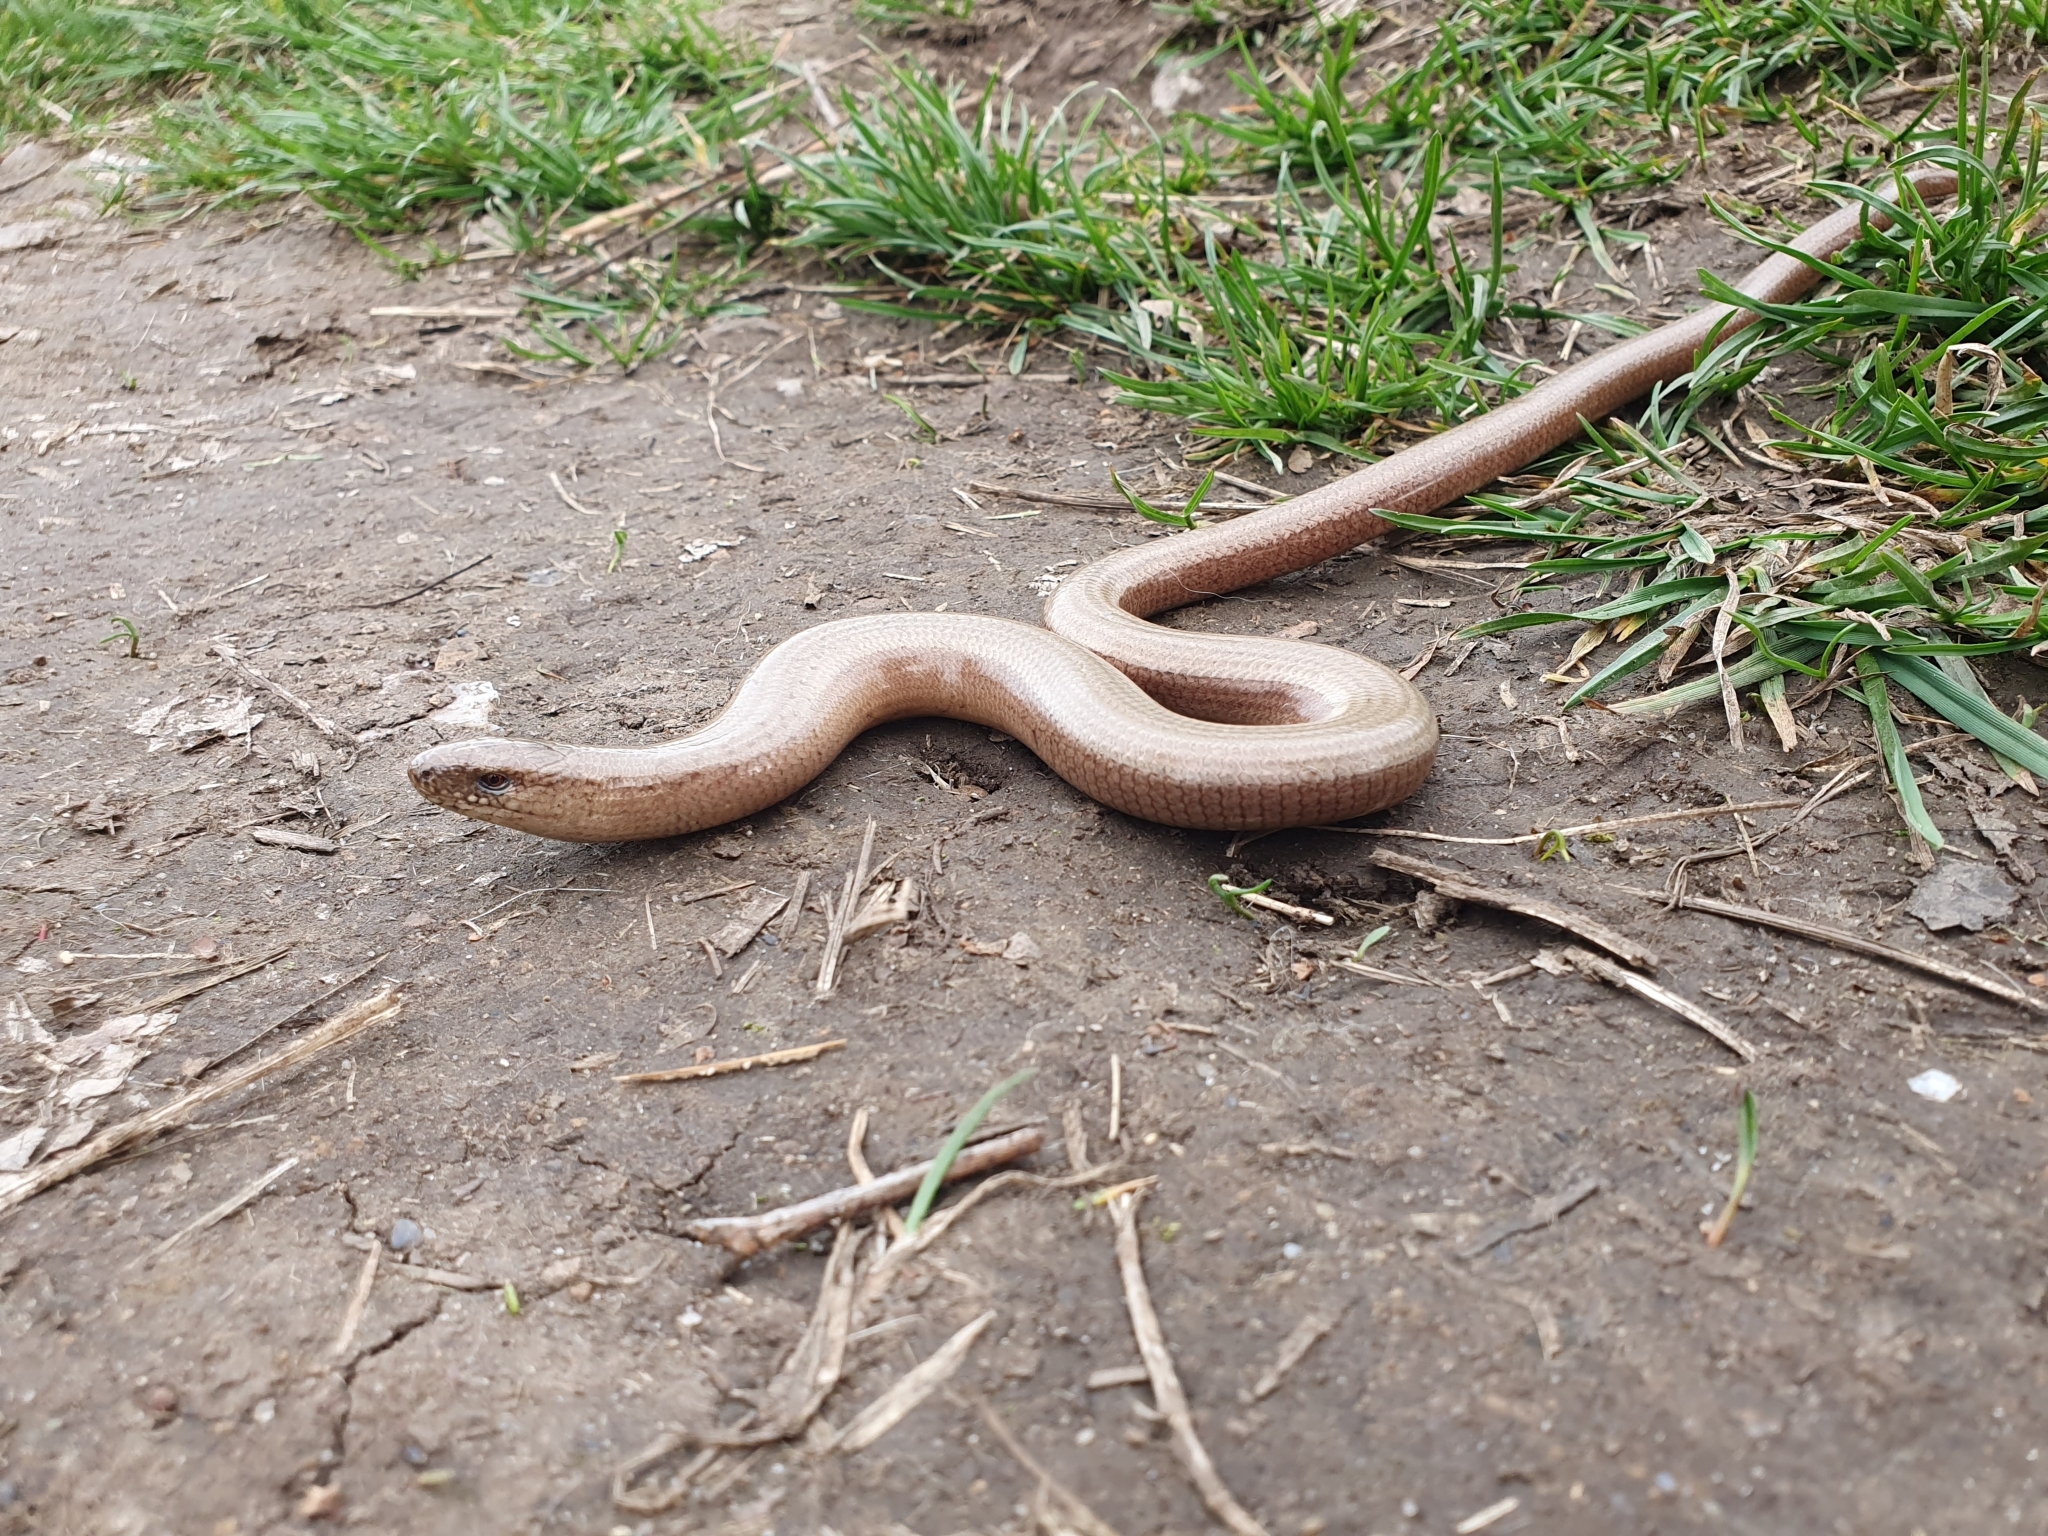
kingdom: Animalia
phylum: Chordata
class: Squamata
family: Anguidae
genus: Anguis
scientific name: Anguis fragilis
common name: Slow worm
